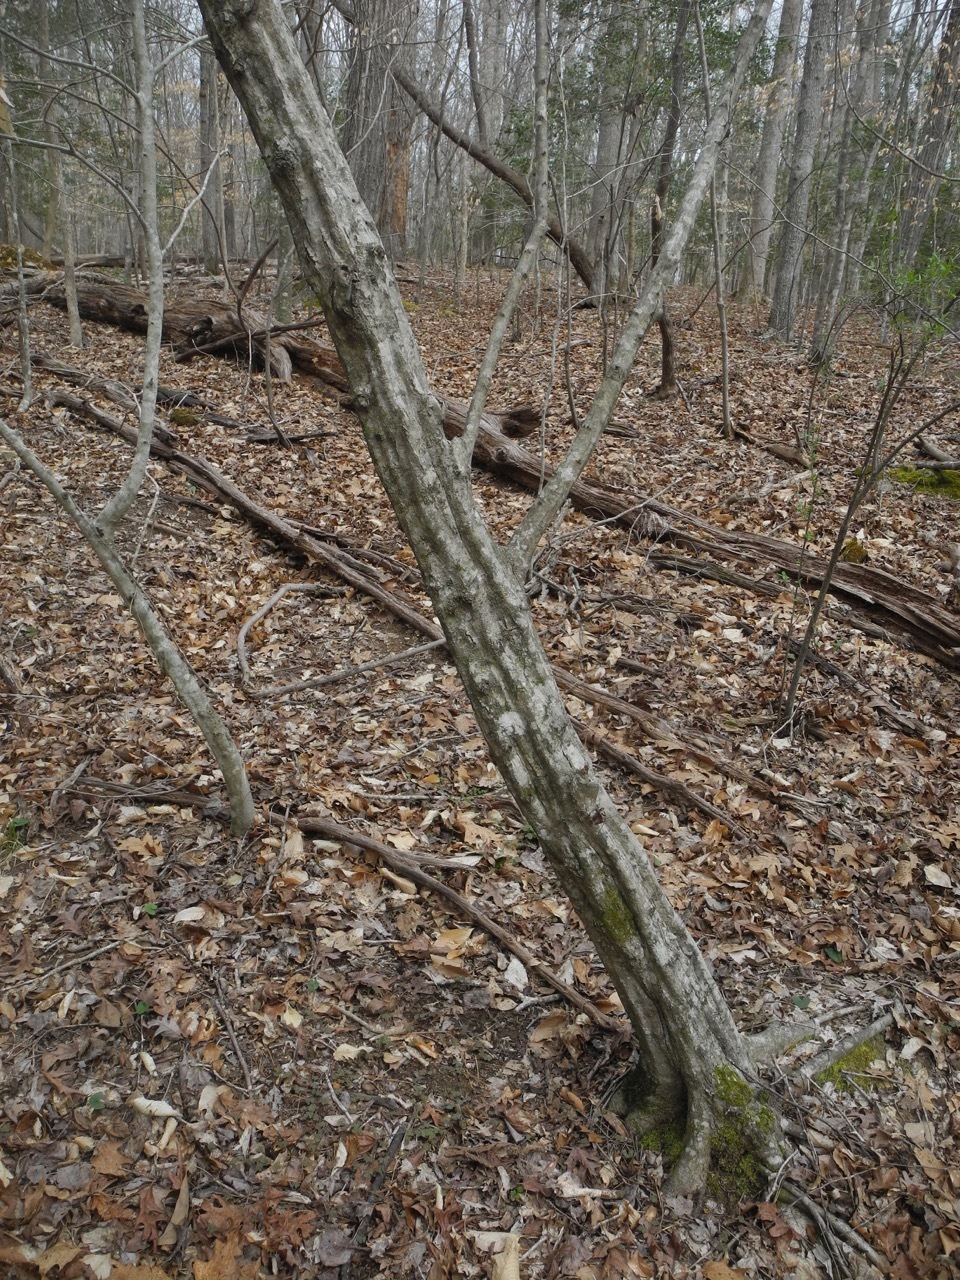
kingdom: Plantae
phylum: Tracheophyta
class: Magnoliopsida
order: Fagales
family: Betulaceae
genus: Carpinus
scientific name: Carpinus caroliniana
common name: American hornbeam
